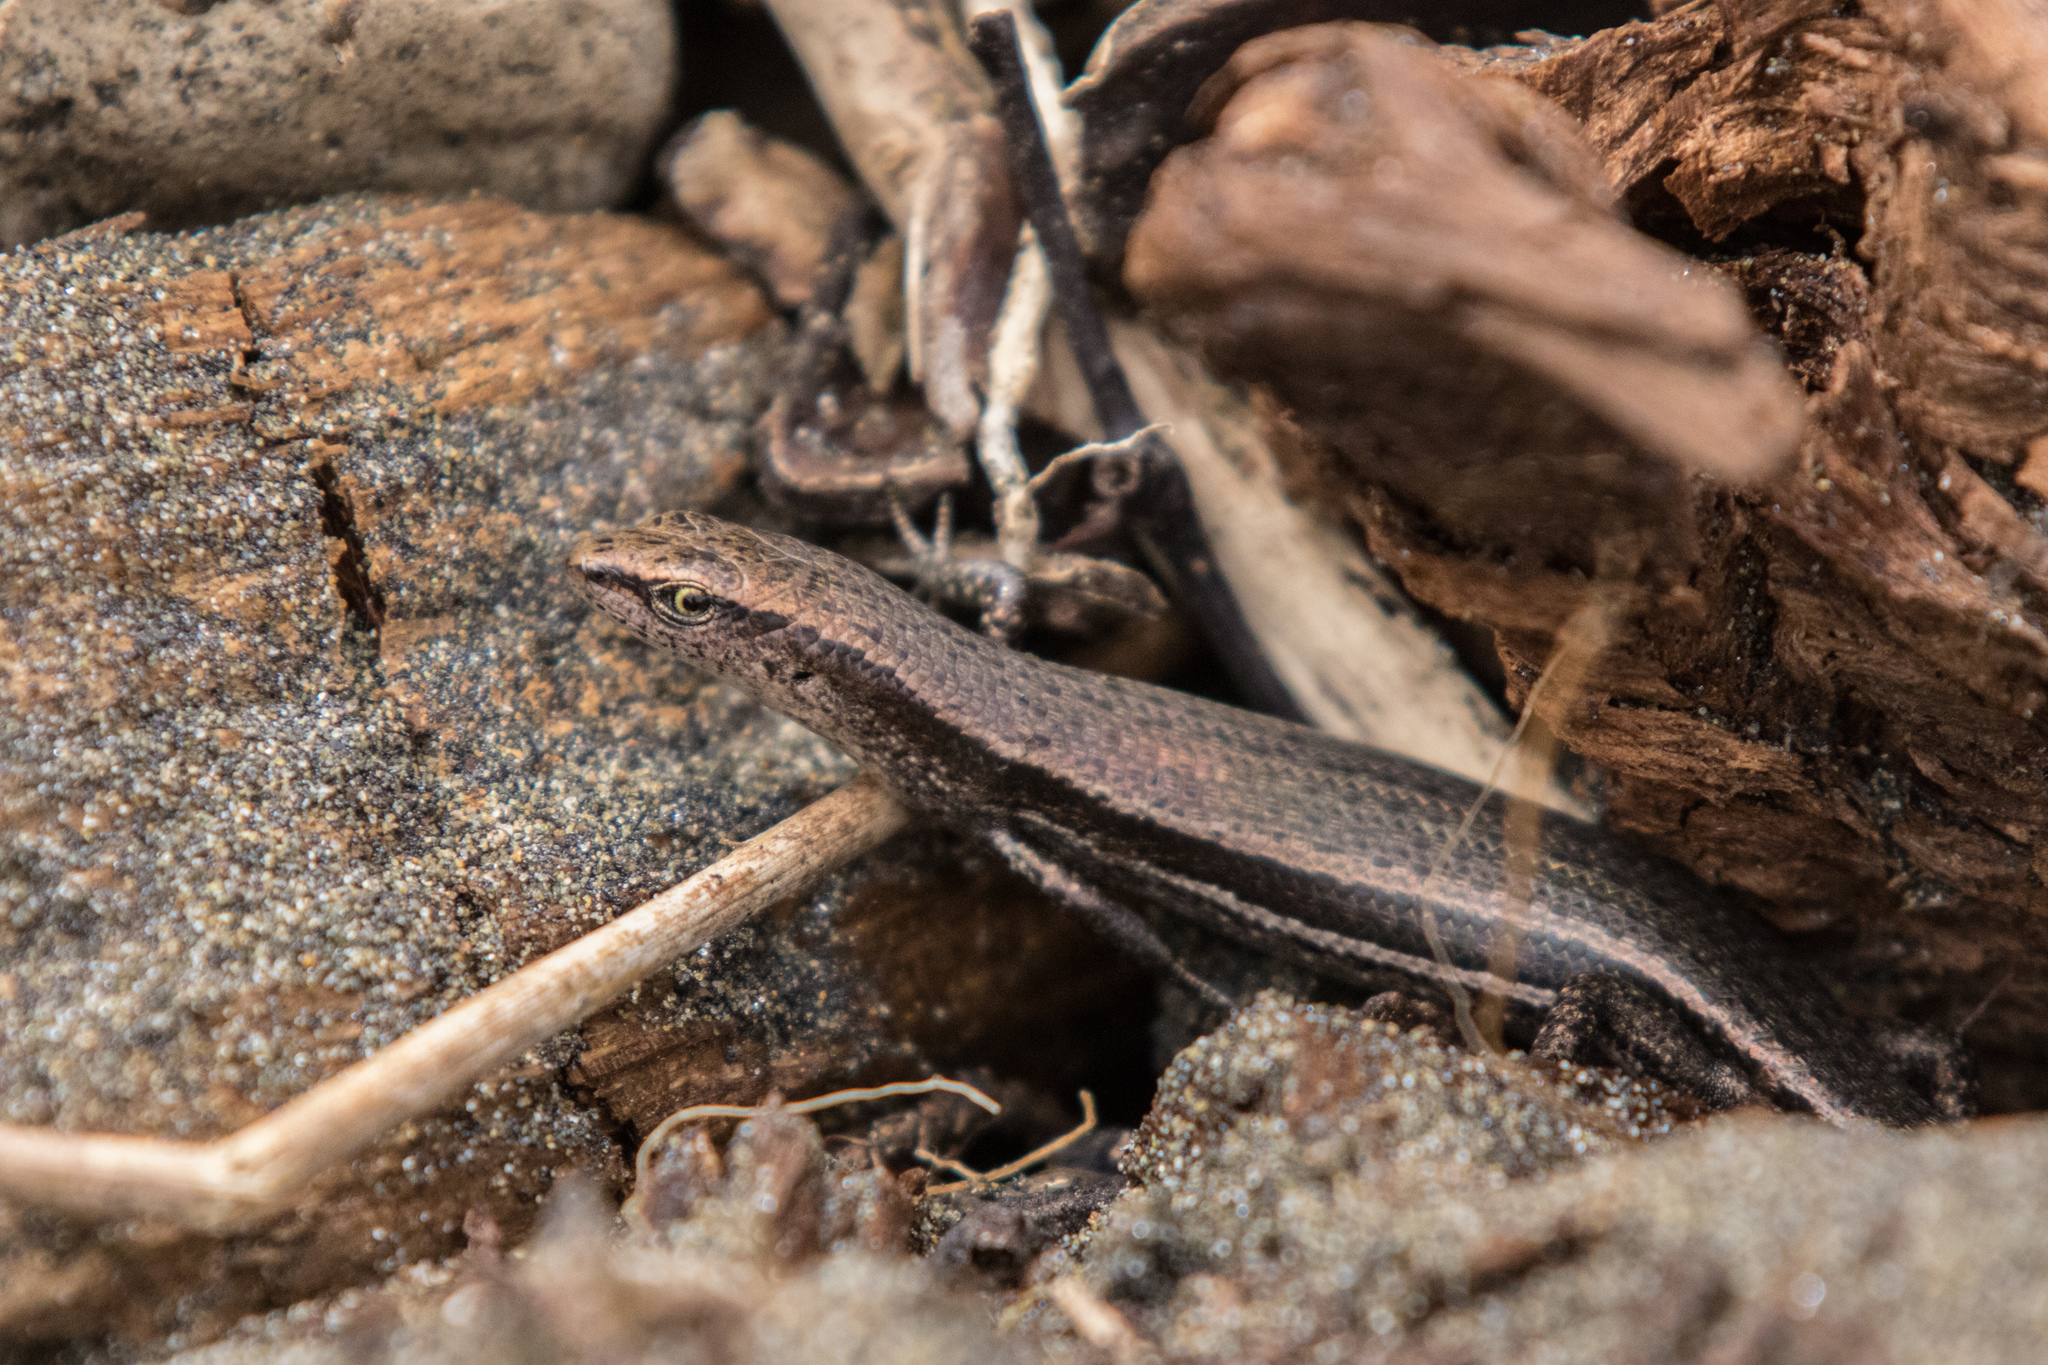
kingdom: Animalia
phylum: Chordata
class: Squamata
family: Scincidae
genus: Lampropholis
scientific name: Lampropholis delicata
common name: Plague skink
